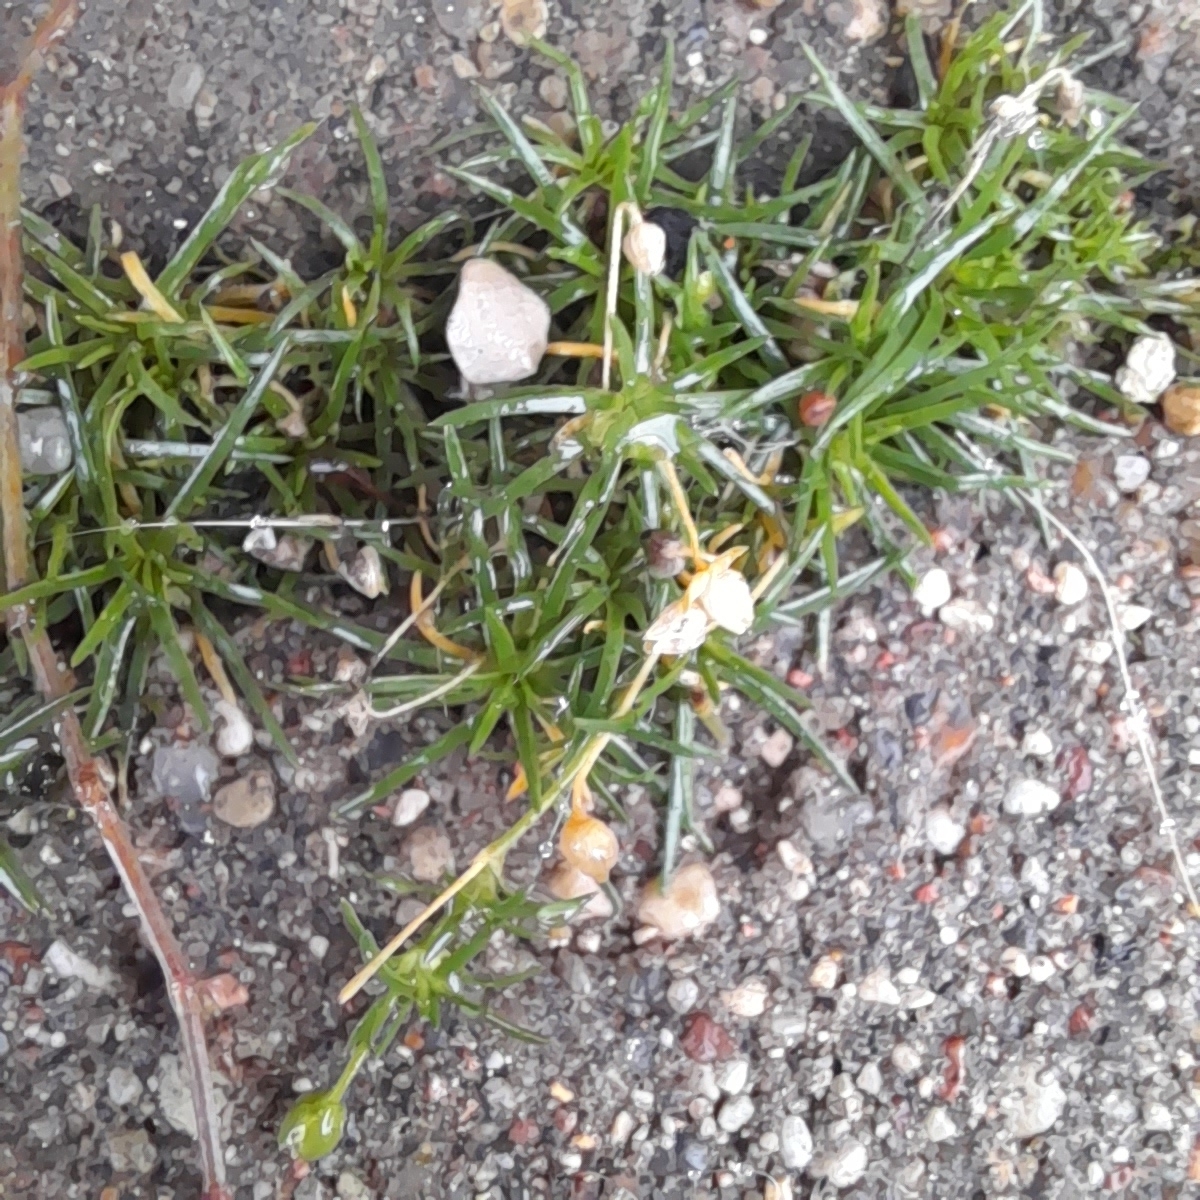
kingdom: Plantae
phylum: Tracheophyta
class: Magnoliopsida
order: Caryophyllales
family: Caryophyllaceae
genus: Sagina
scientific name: Sagina procumbens
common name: Procumbent pearlwort
